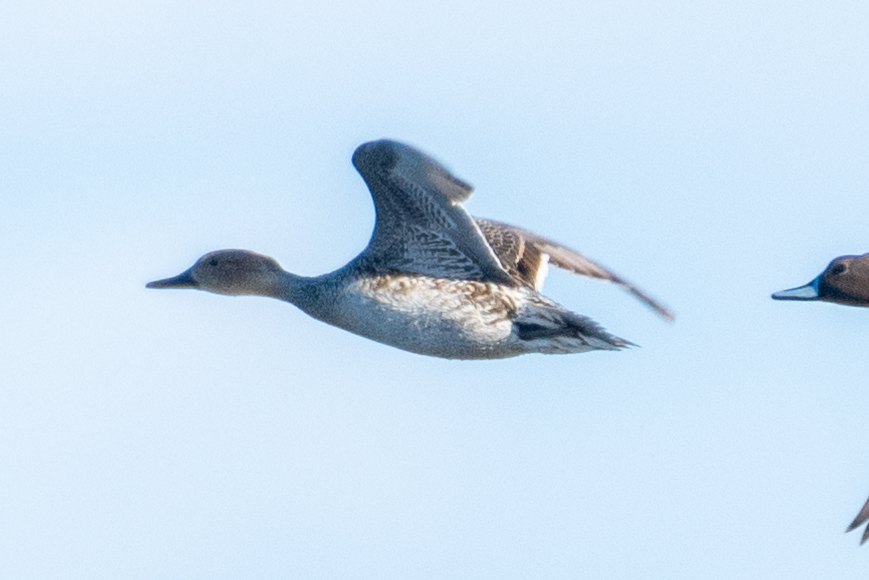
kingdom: Animalia
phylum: Chordata
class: Aves
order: Anseriformes
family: Anatidae
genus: Anas
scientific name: Anas acuta
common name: Northern pintail
